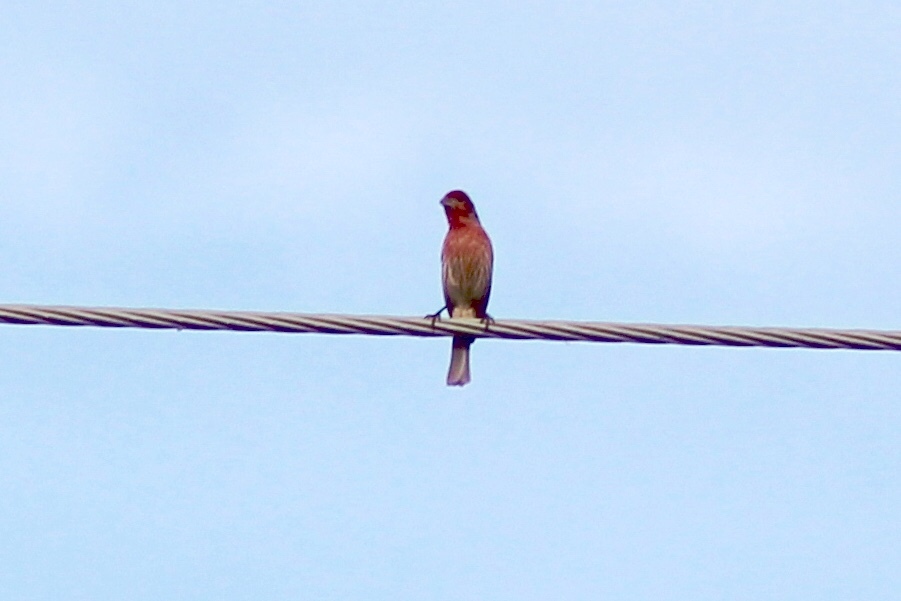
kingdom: Animalia
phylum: Chordata
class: Aves
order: Passeriformes
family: Fringillidae
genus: Haemorhous
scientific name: Haemorhous mexicanus
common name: House finch
